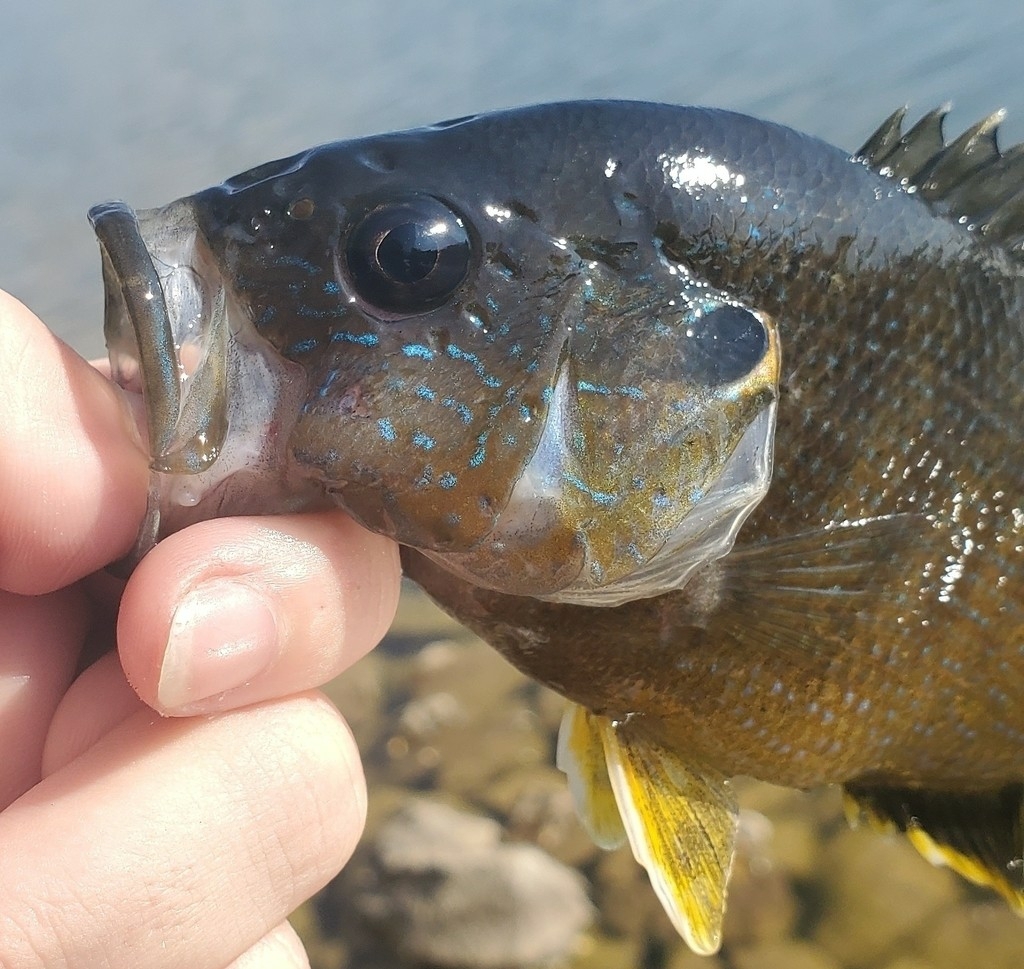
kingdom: Animalia
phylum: Chordata
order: Perciformes
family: Centrarchidae
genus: Lepomis
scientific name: Lepomis cyanellus
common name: Green sunfish
